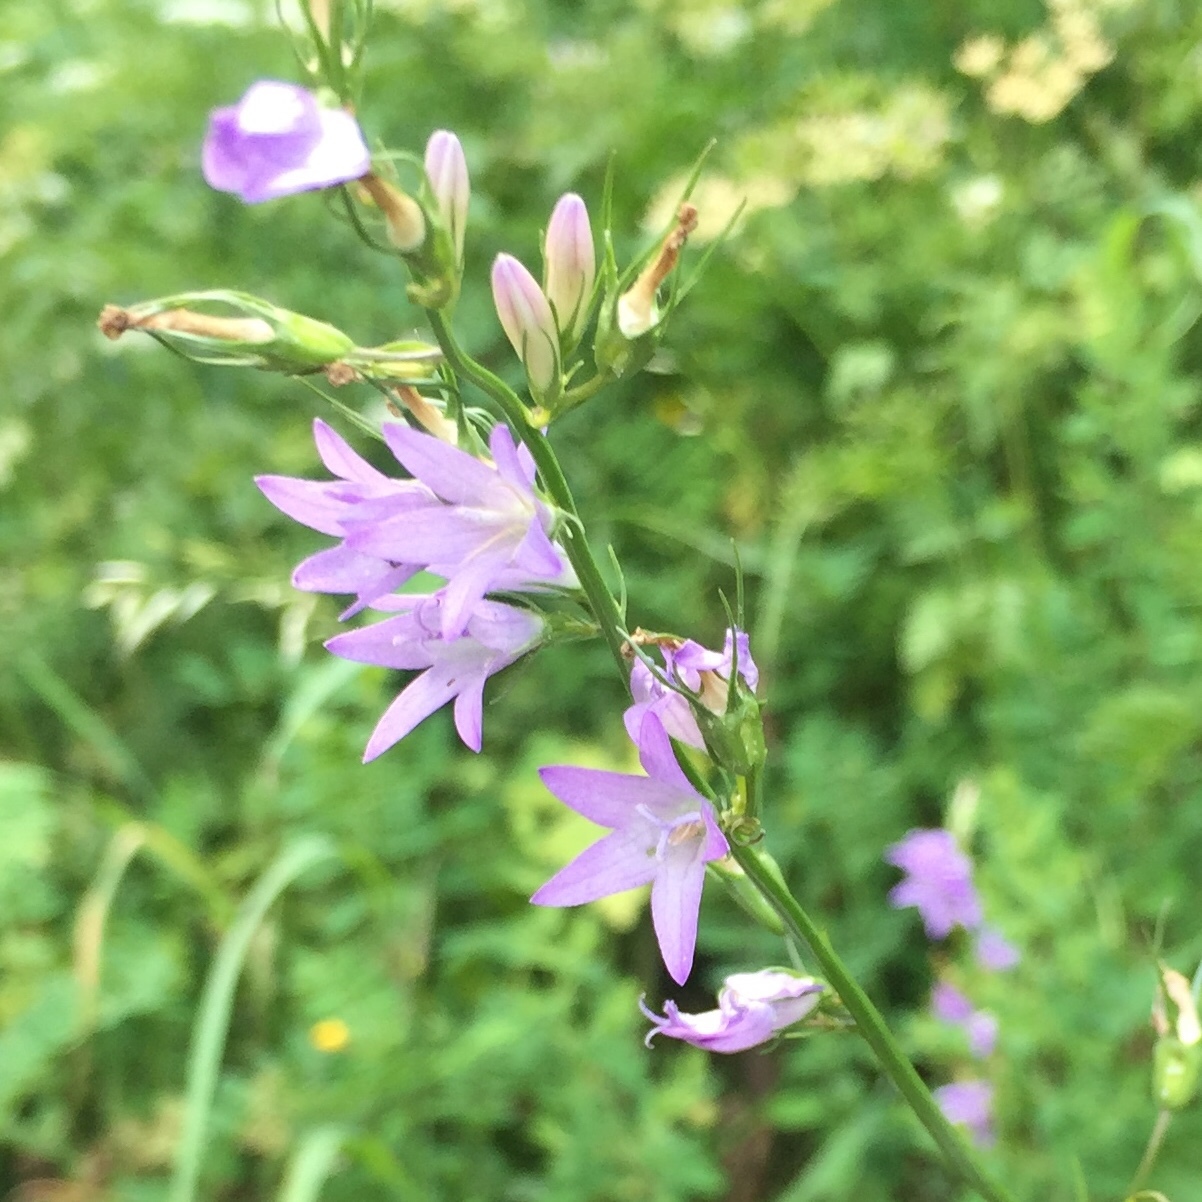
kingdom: Plantae
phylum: Tracheophyta
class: Magnoliopsida
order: Asterales
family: Campanulaceae
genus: Campanula
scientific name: Campanula rapunculus
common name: Rampion bellflower
